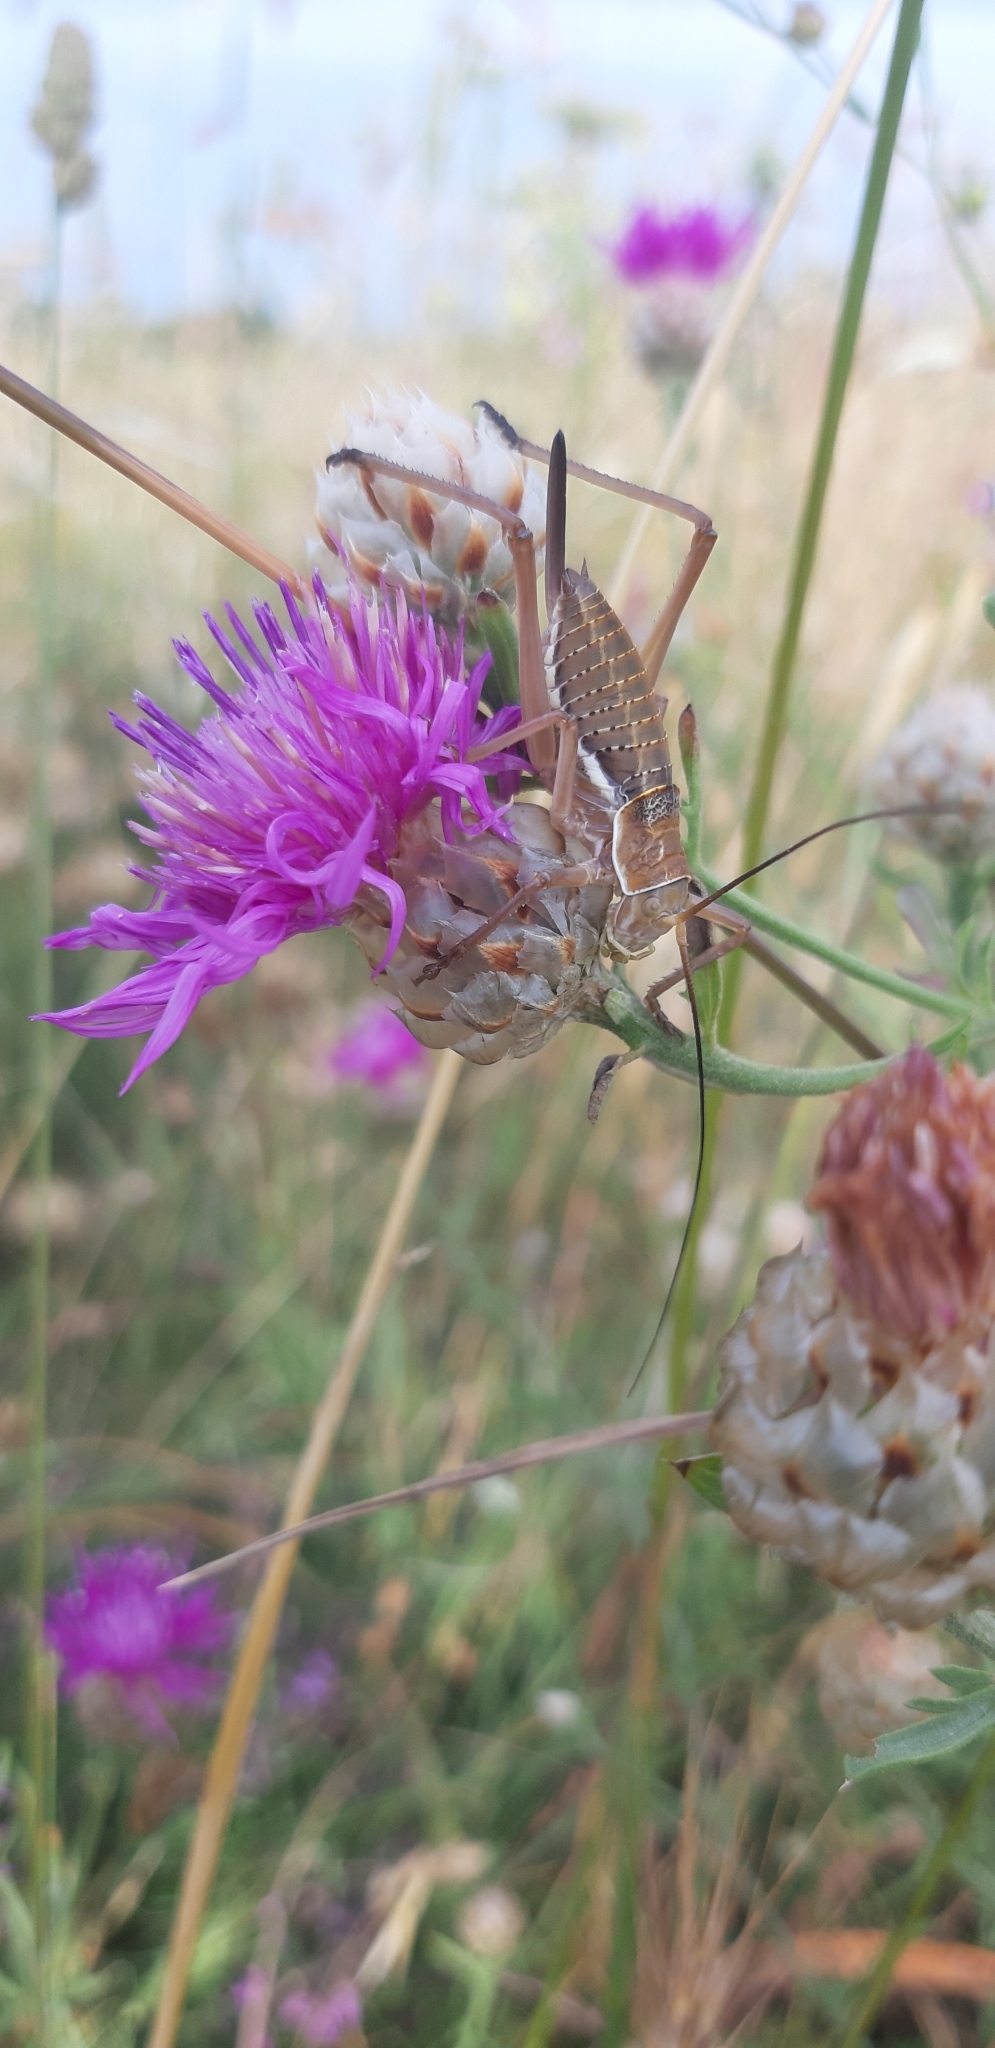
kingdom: Animalia
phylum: Arthropoda
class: Insecta
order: Orthoptera
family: Tettigoniidae
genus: Ephippiger
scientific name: Ephippiger apulus
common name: Apulian saddle bush-cricket
